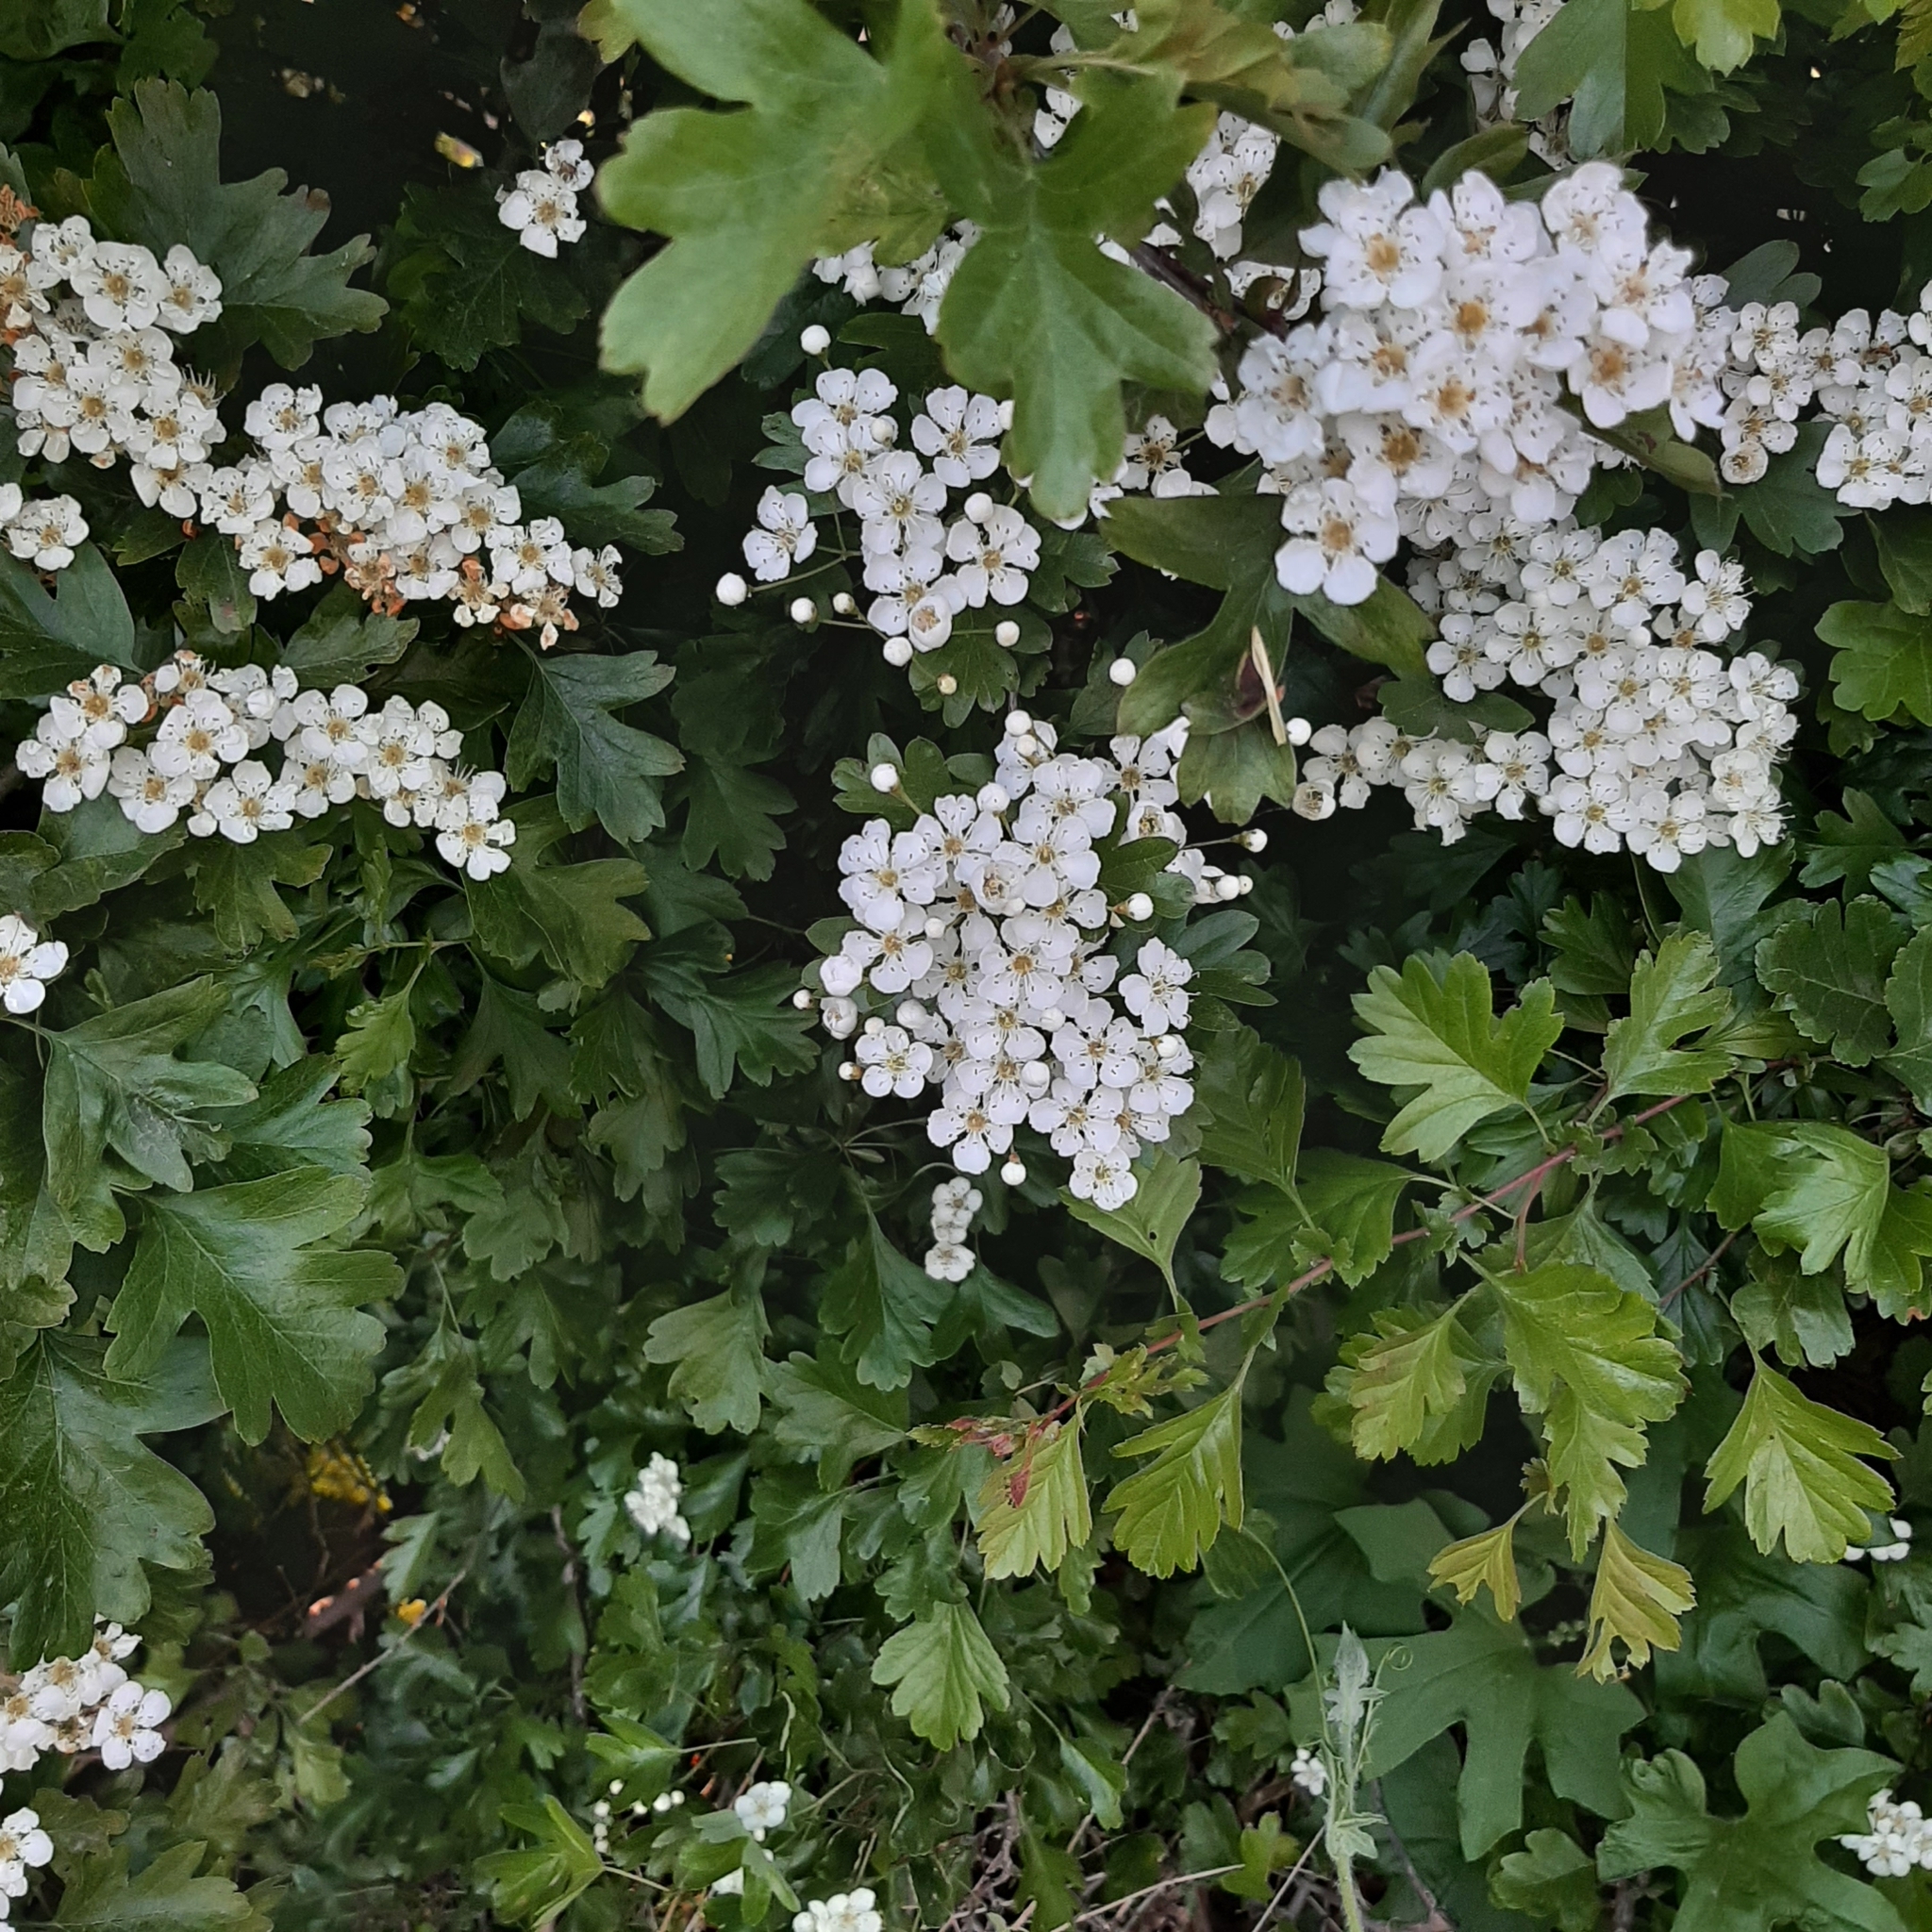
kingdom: Plantae
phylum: Tracheophyta
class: Magnoliopsida
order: Rosales
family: Rosaceae
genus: Crataegus
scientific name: Crataegus monogyna
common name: Hawthorn
